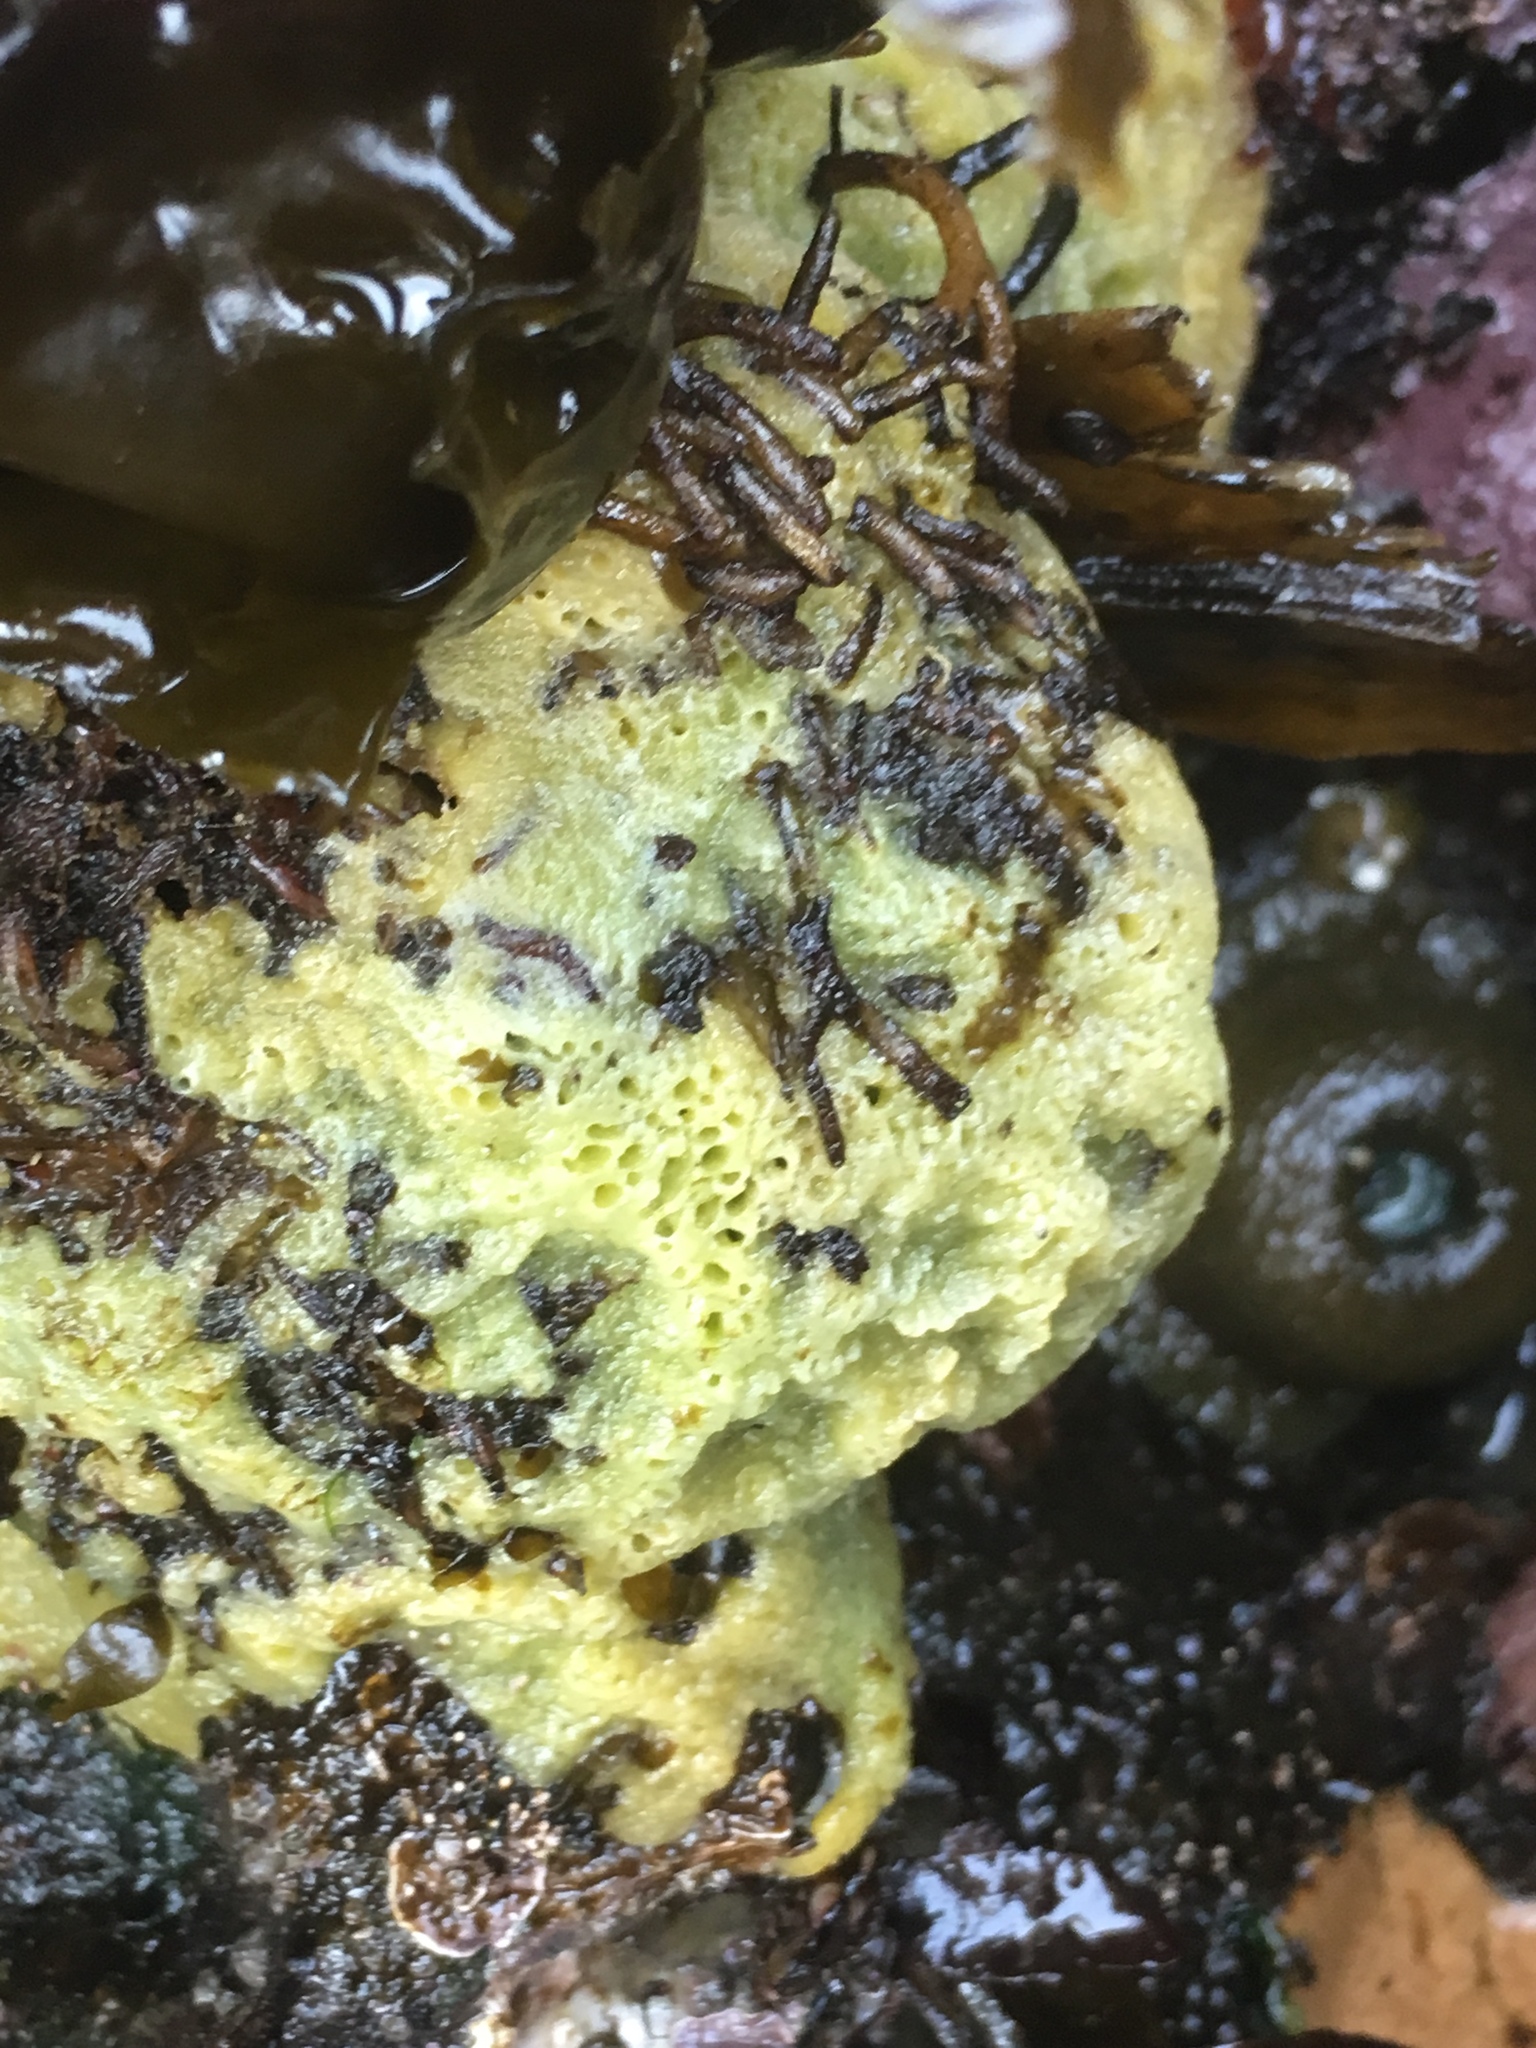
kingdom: Animalia
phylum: Porifera
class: Demospongiae
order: Suberitida
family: Halichondriidae
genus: Halichondria
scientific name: Halichondria panicea
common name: Breadcrumb sponge
